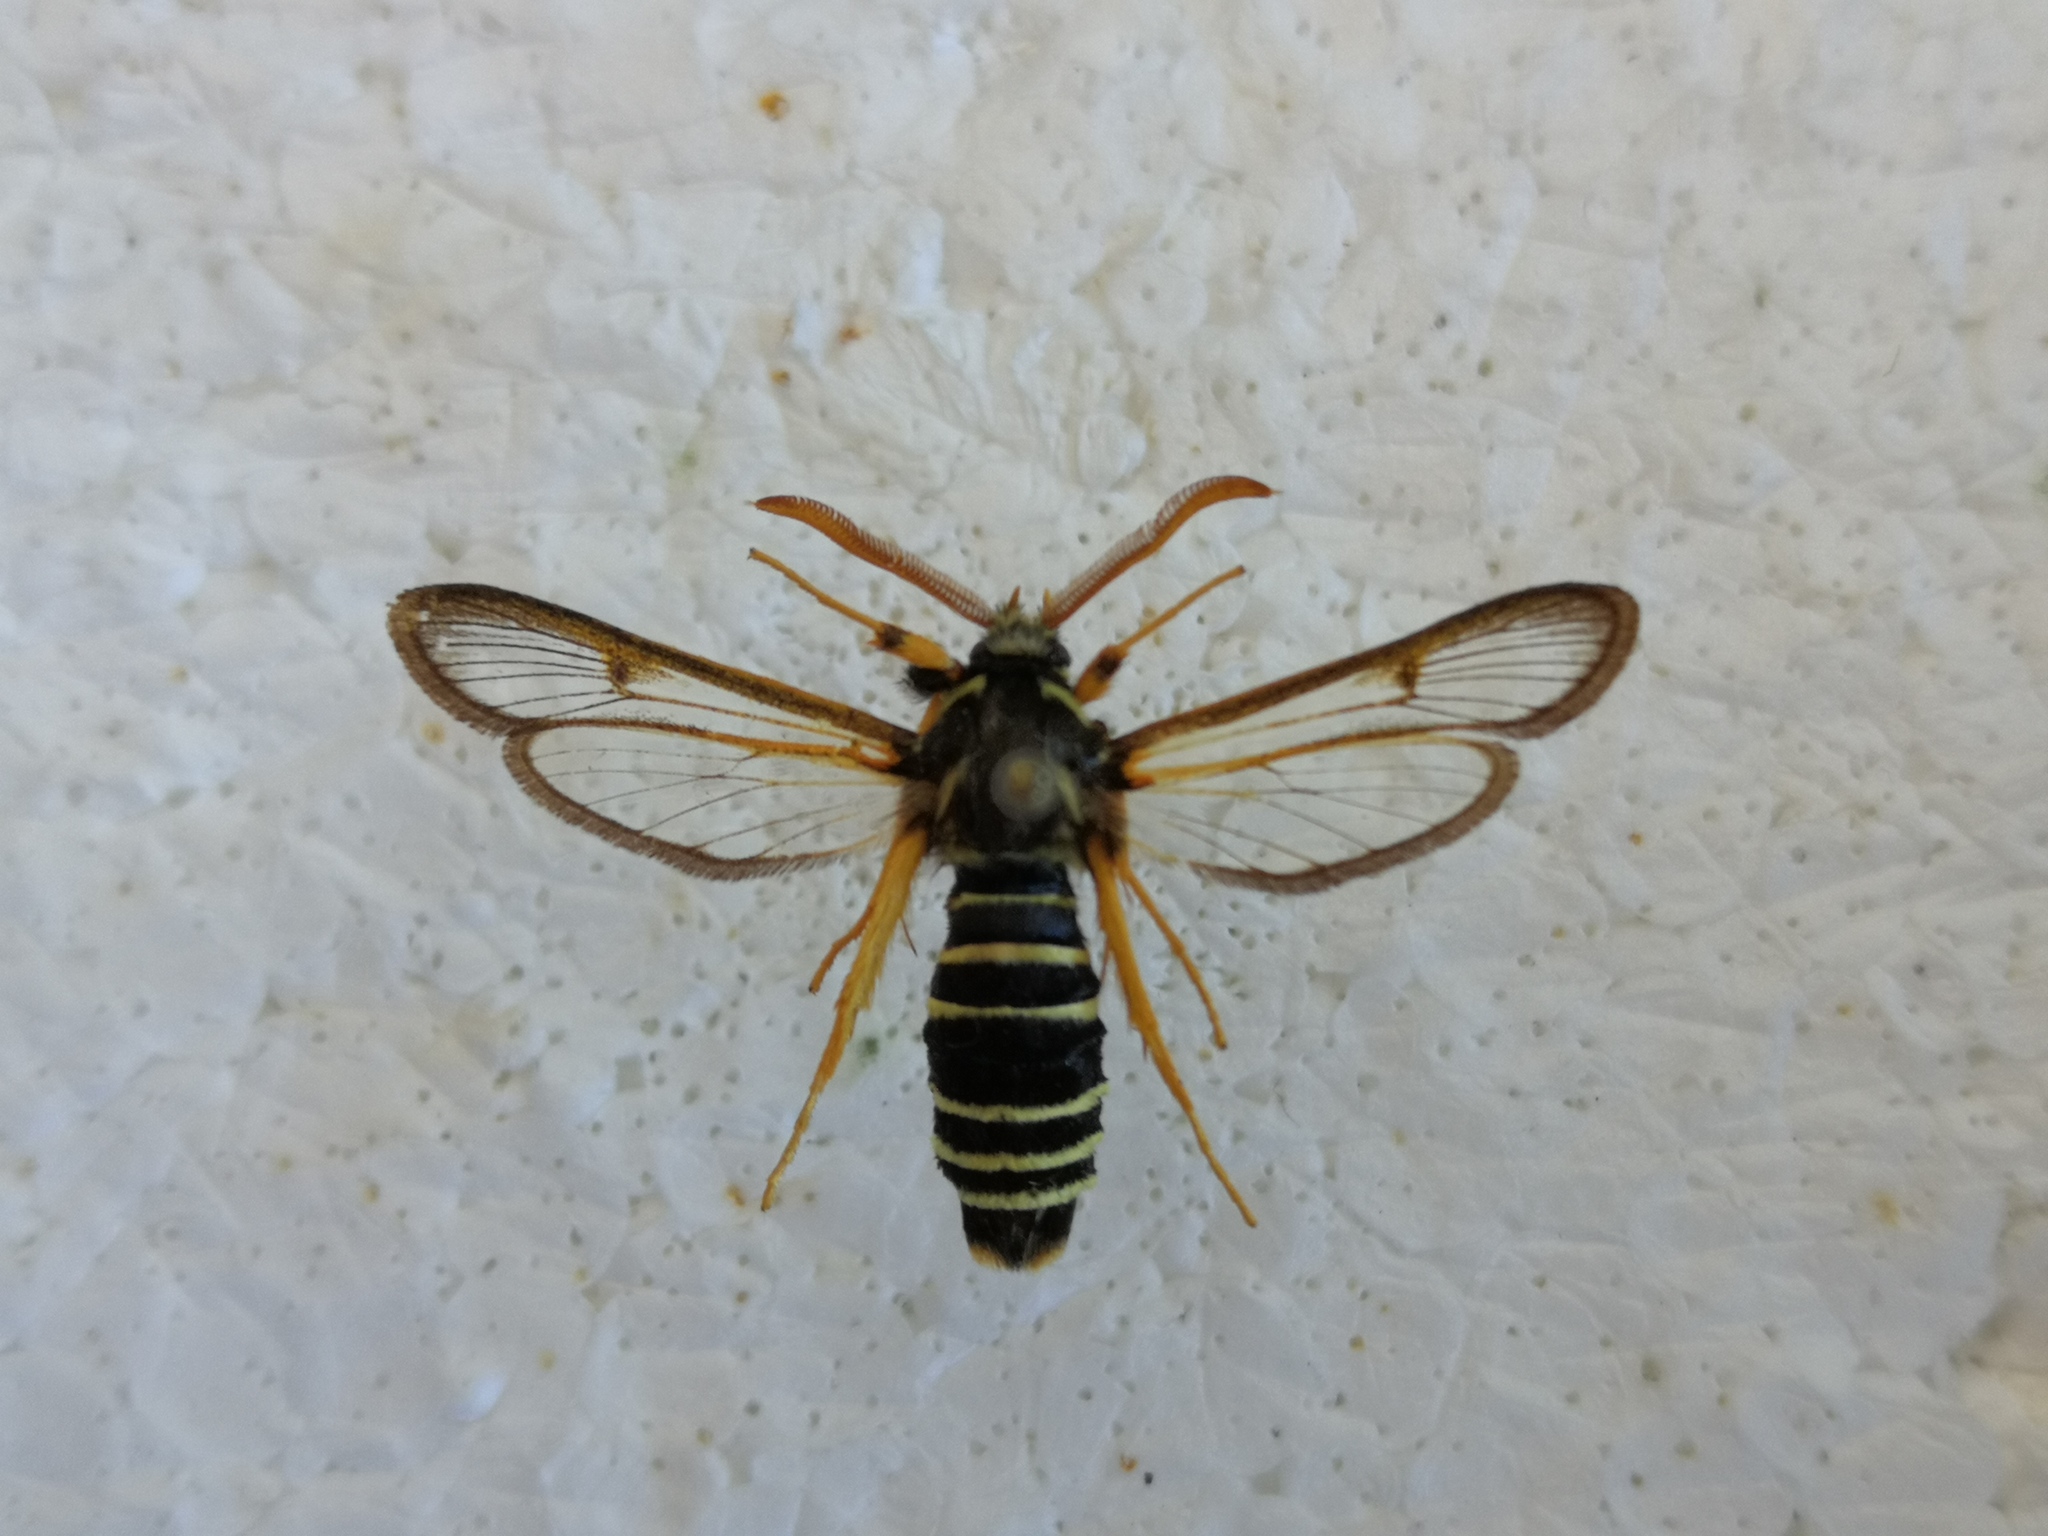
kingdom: Animalia
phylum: Arthropoda
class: Insecta
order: Lepidoptera
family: Sesiidae
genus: Eusphecia
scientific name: Eusphecia melanocephala
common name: Aspen clearwing
